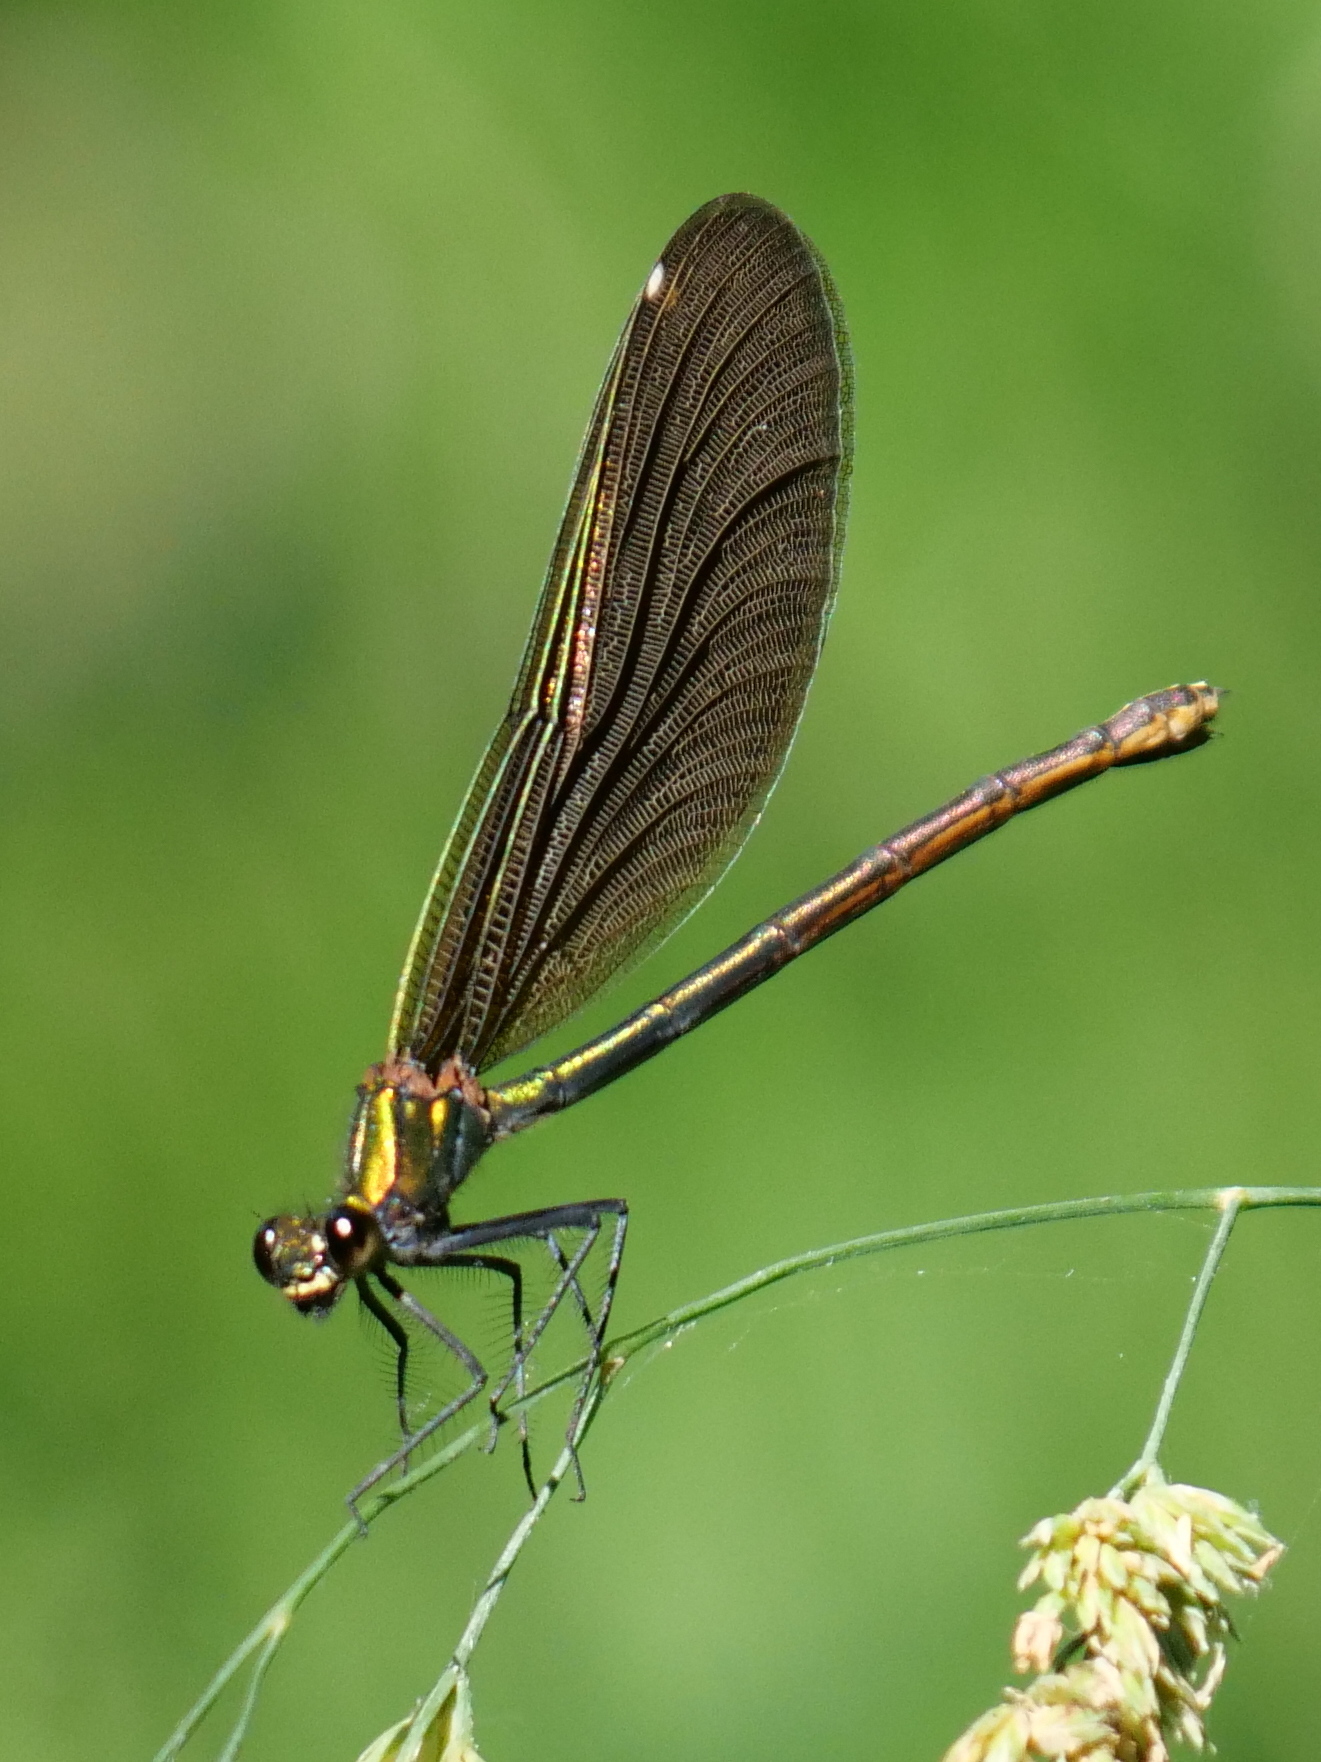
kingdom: Animalia
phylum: Arthropoda
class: Insecta
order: Odonata
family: Calopterygidae
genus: Calopteryx
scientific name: Calopteryx virgo
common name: Beautiful demoiselle
